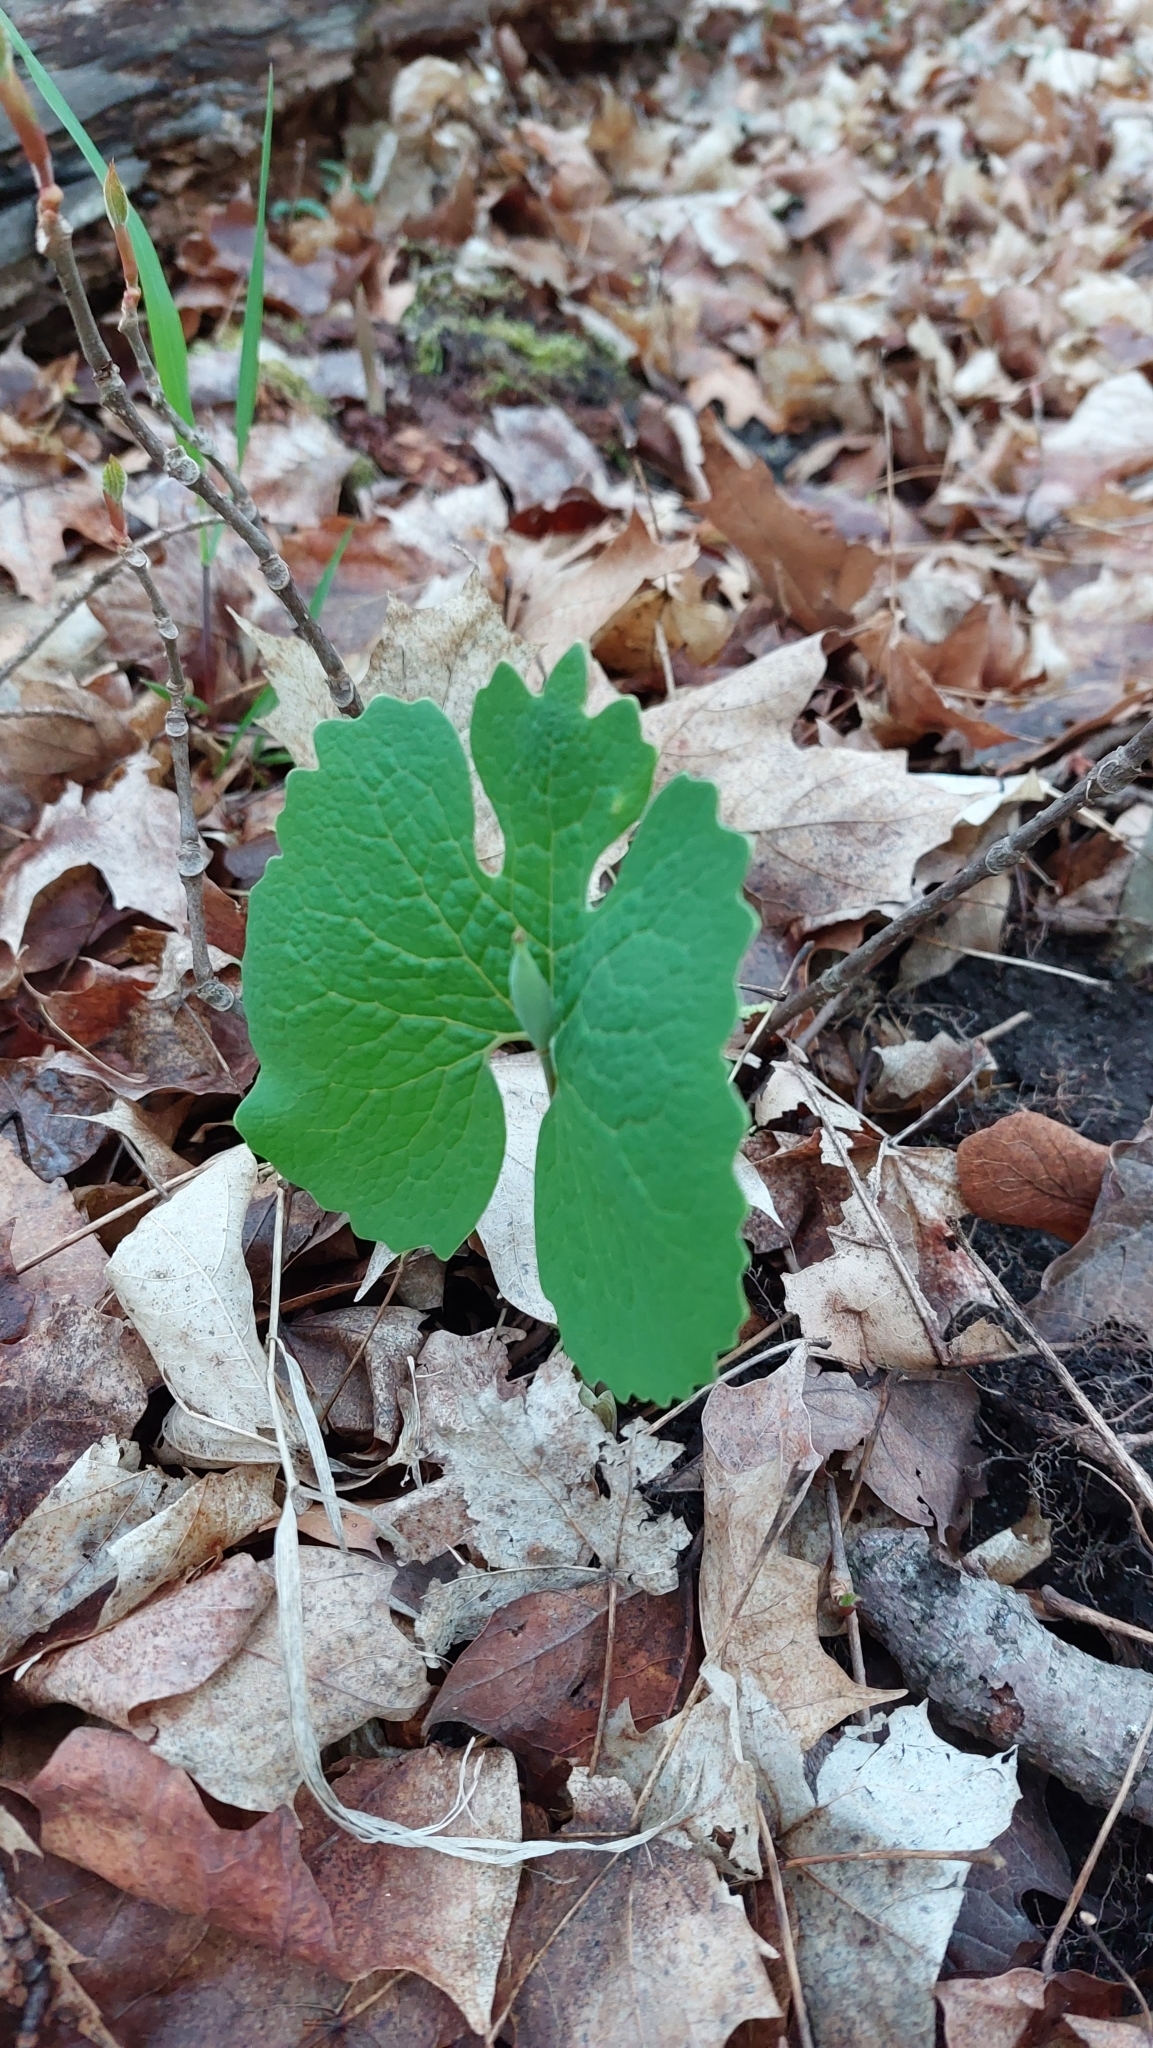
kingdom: Plantae
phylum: Tracheophyta
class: Magnoliopsida
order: Ranunculales
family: Papaveraceae
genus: Sanguinaria
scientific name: Sanguinaria canadensis
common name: Bloodroot
